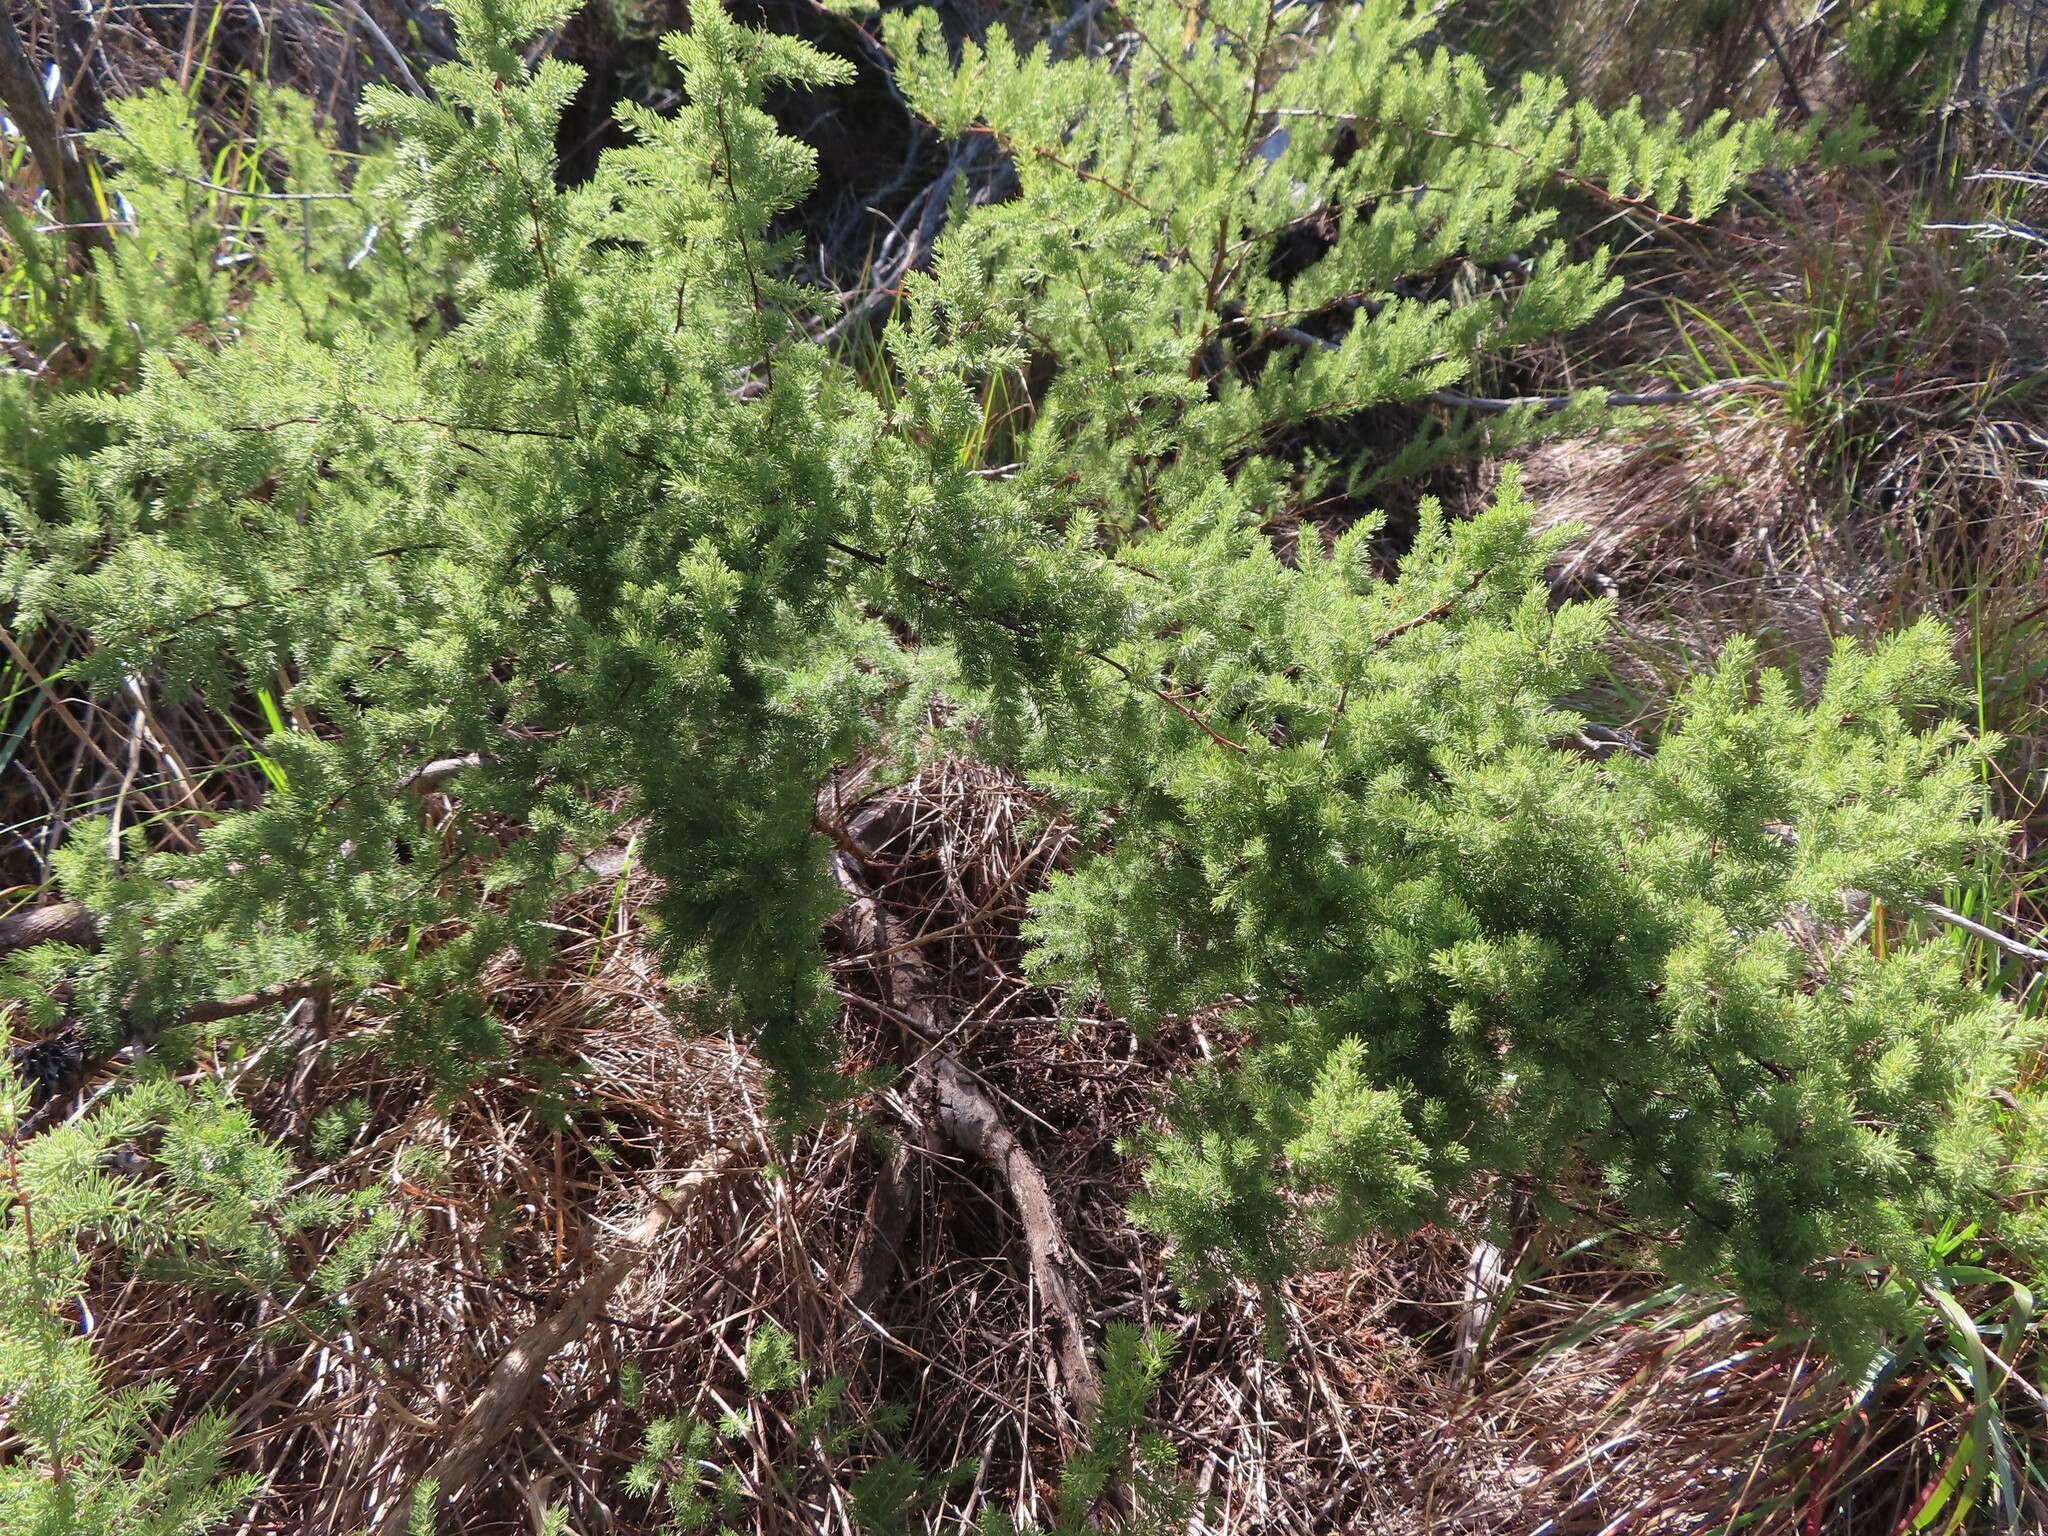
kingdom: Plantae
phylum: Tracheophyta
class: Liliopsida
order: Asparagales
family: Asparagaceae
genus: Asparagus
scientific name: Asparagus rubicundus
